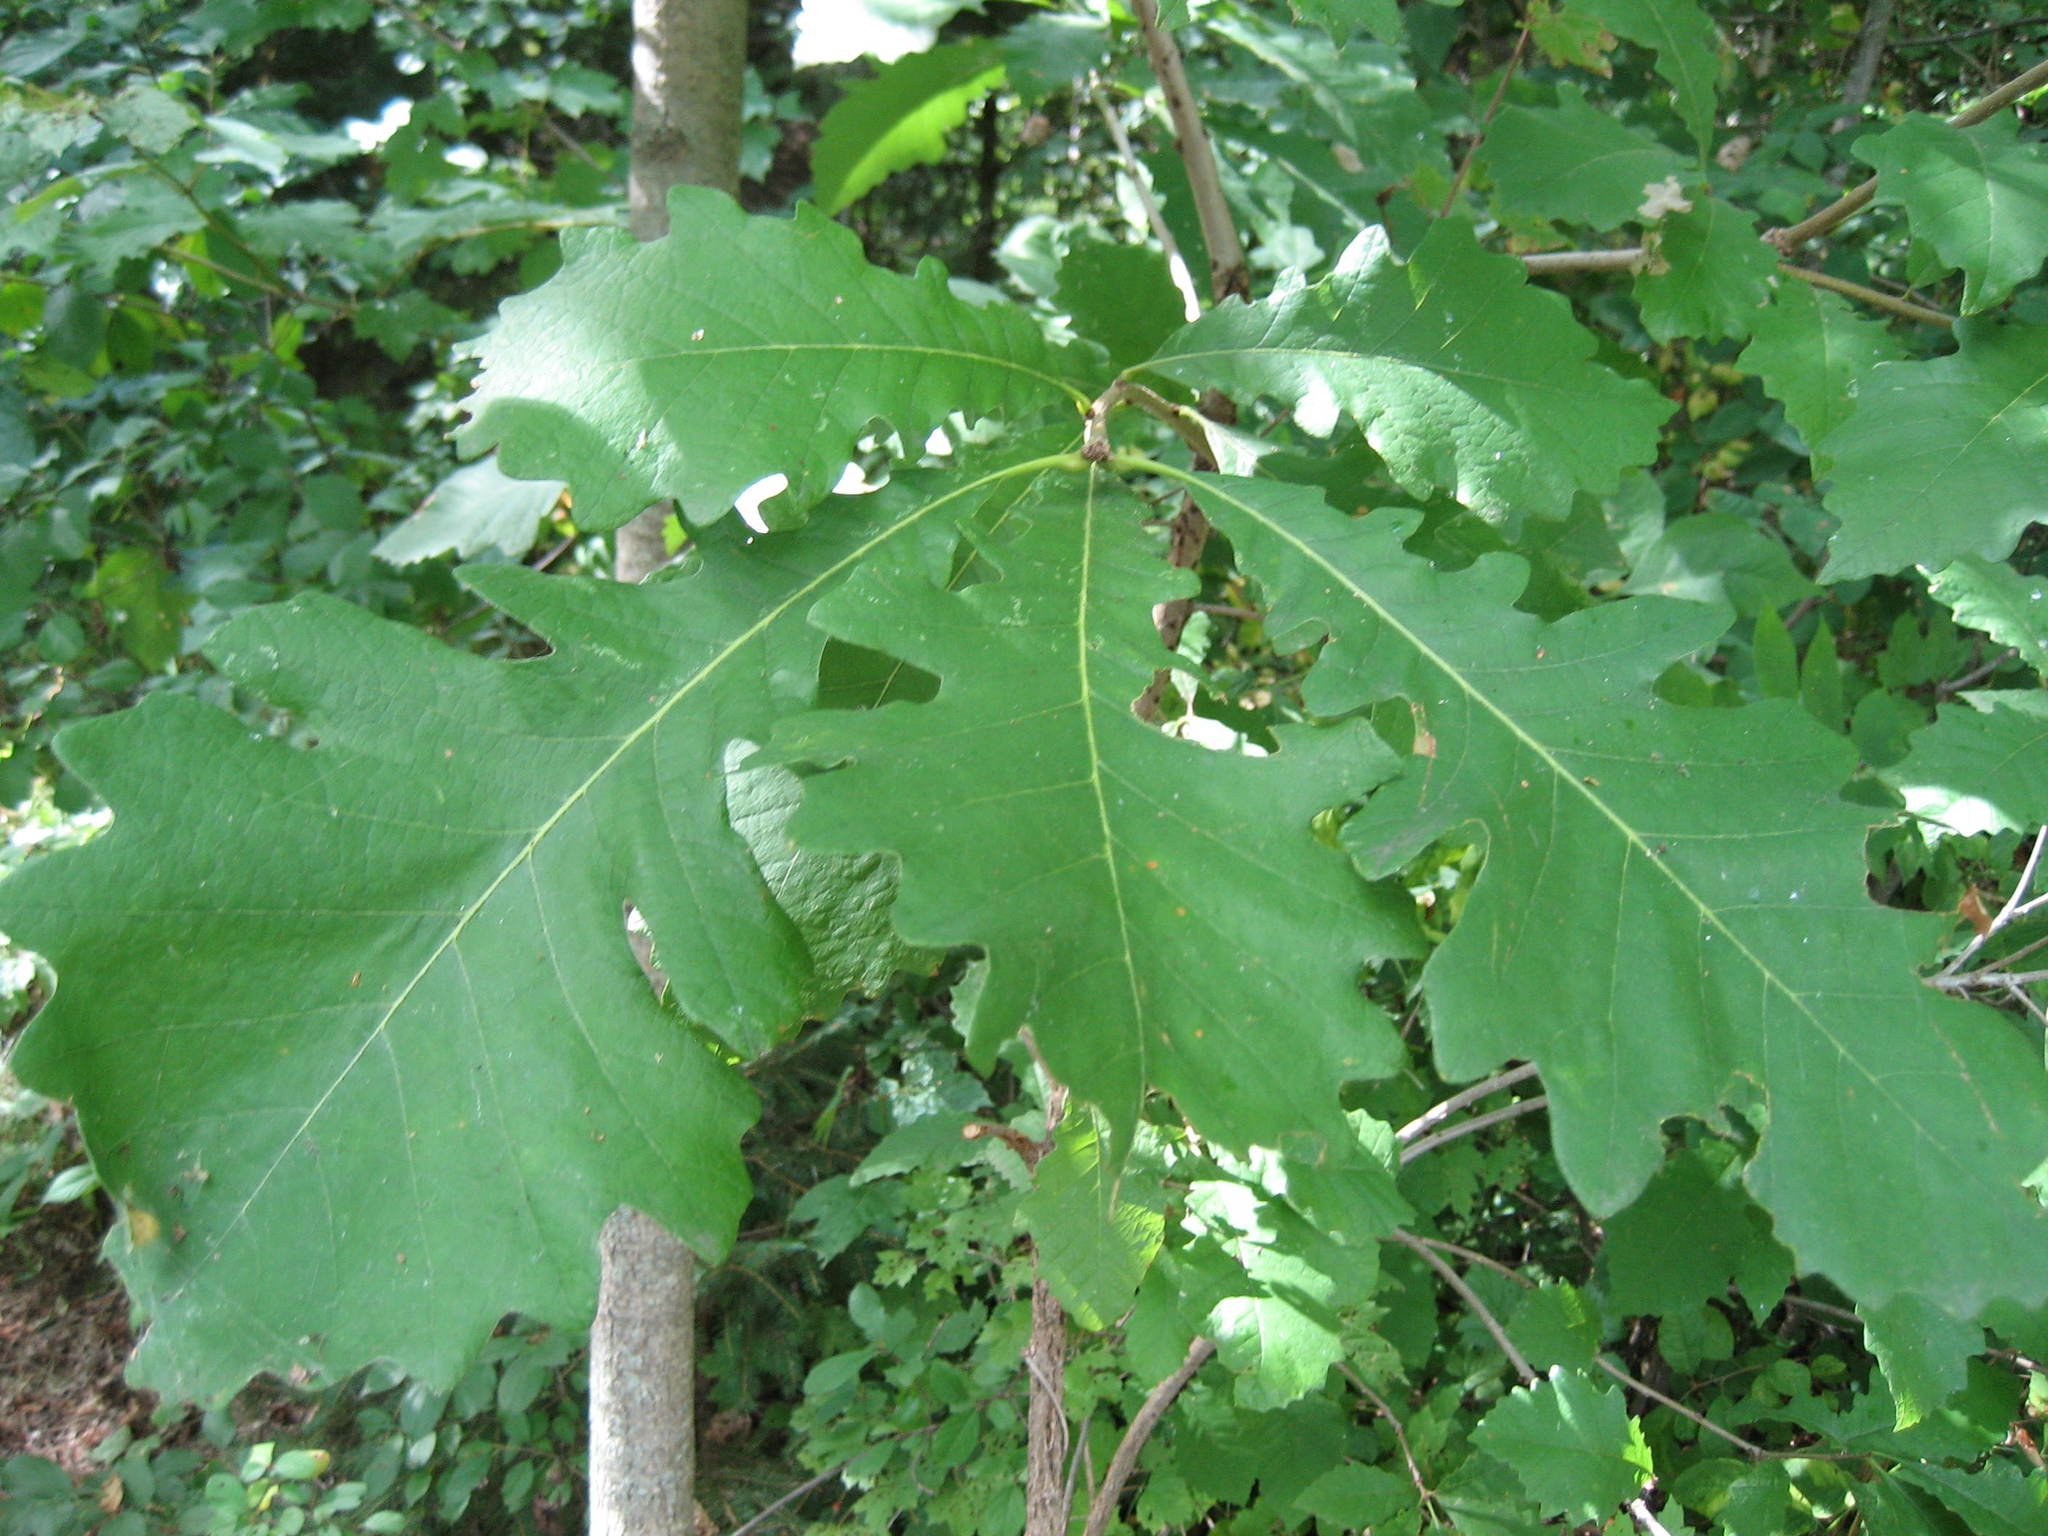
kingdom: Plantae
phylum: Tracheophyta
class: Magnoliopsida
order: Fagales
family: Fagaceae
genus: Quercus
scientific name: Quercus macrocarpa
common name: Bur oak
